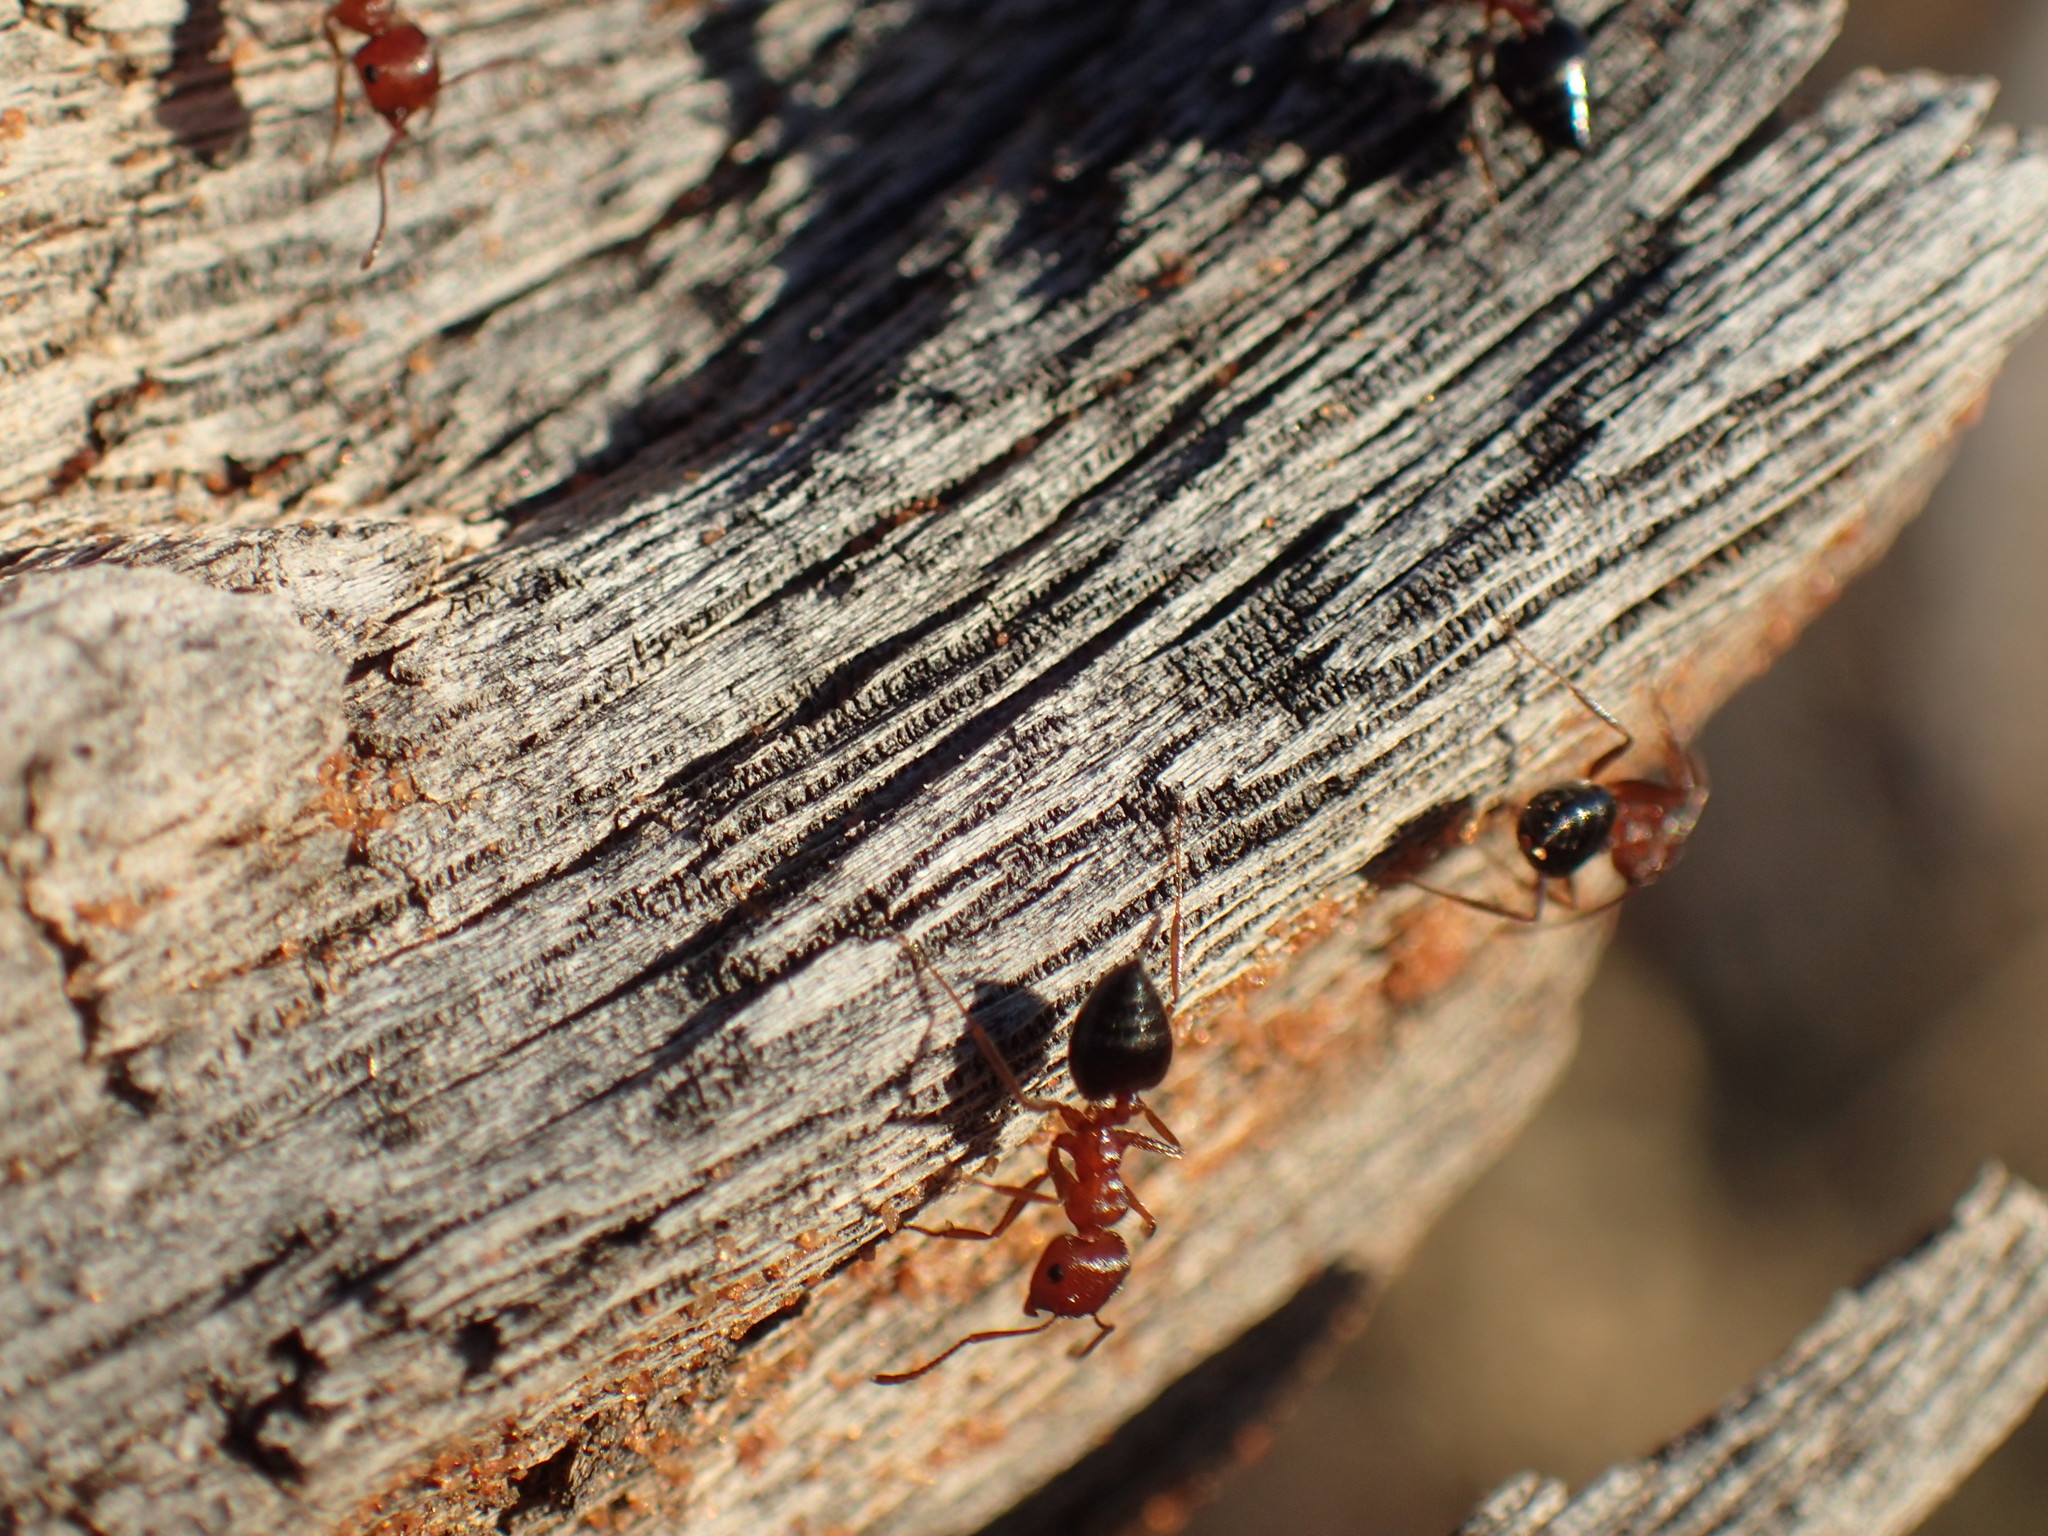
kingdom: Animalia
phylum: Arthropoda
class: Insecta
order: Hymenoptera
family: Formicidae
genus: Crematogaster
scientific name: Crematogaster melanogaster
